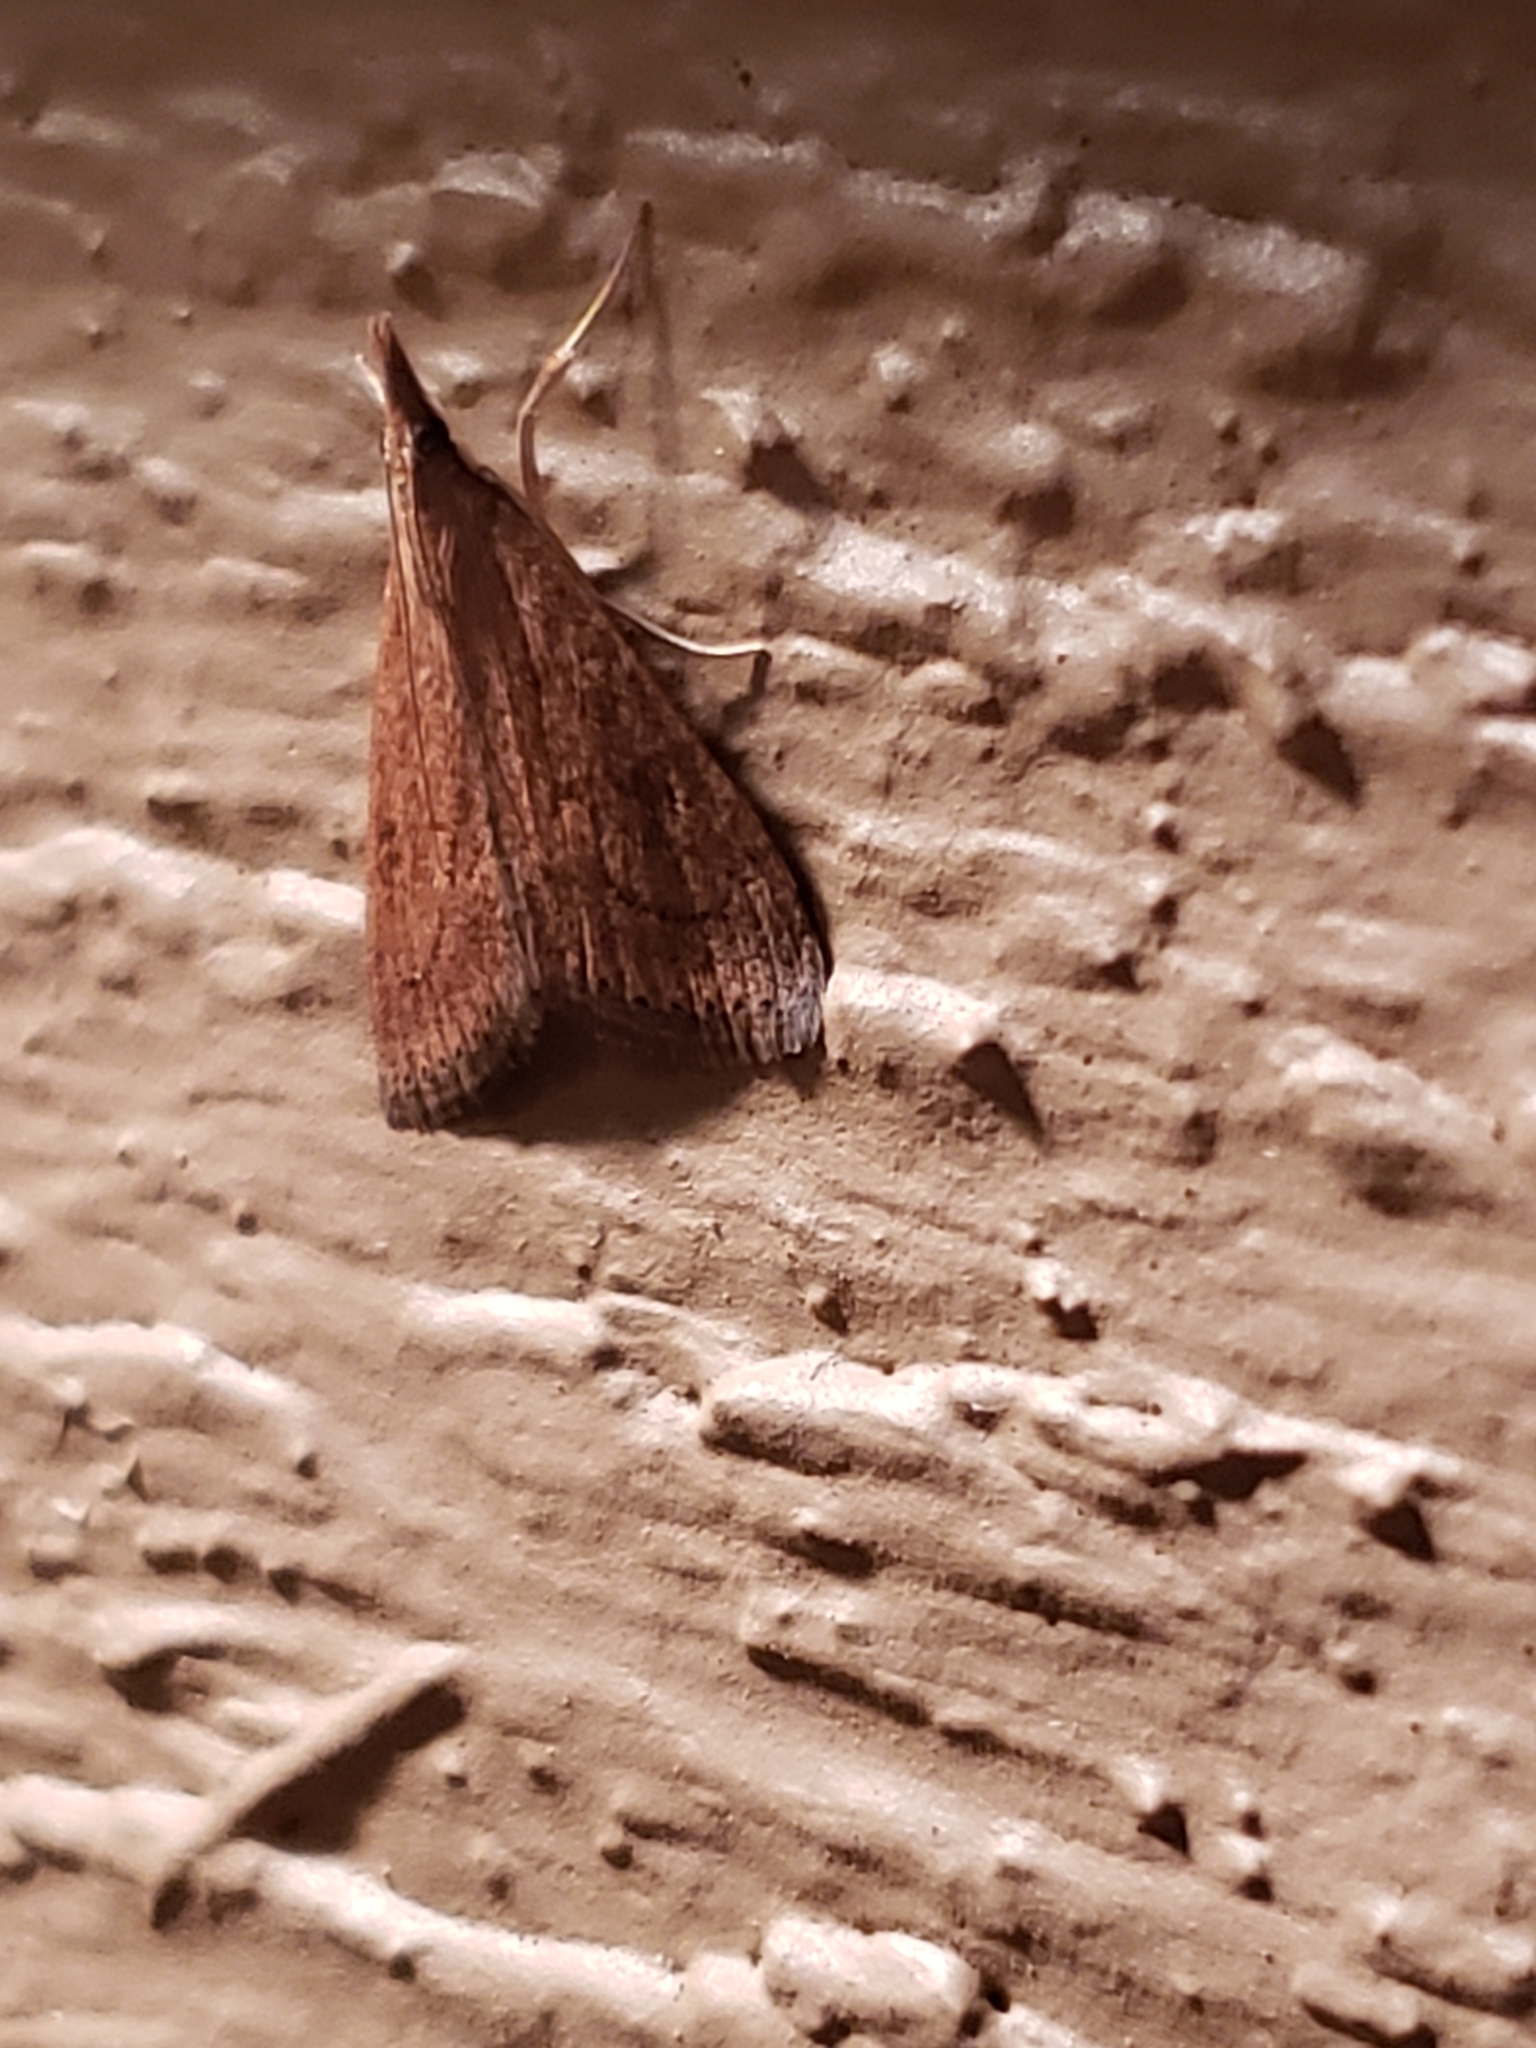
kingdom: Animalia
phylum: Arthropoda
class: Insecta
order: Lepidoptera
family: Crambidae
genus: Udea
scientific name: Udea rubigalis
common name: Celery leaftier moth
